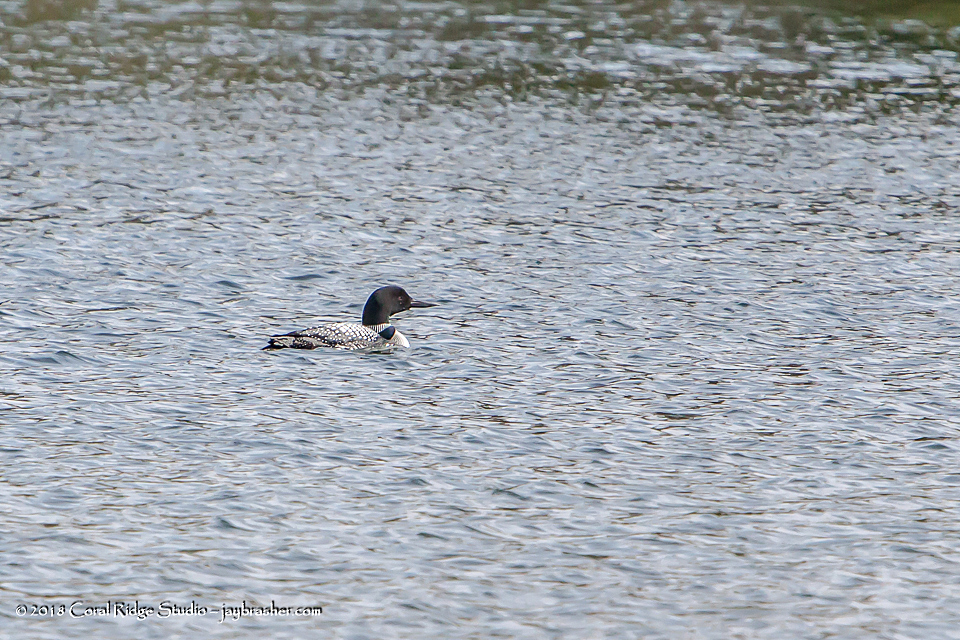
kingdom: Animalia
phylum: Chordata
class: Aves
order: Gaviiformes
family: Gaviidae
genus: Gavia
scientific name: Gavia immer
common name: Common loon
